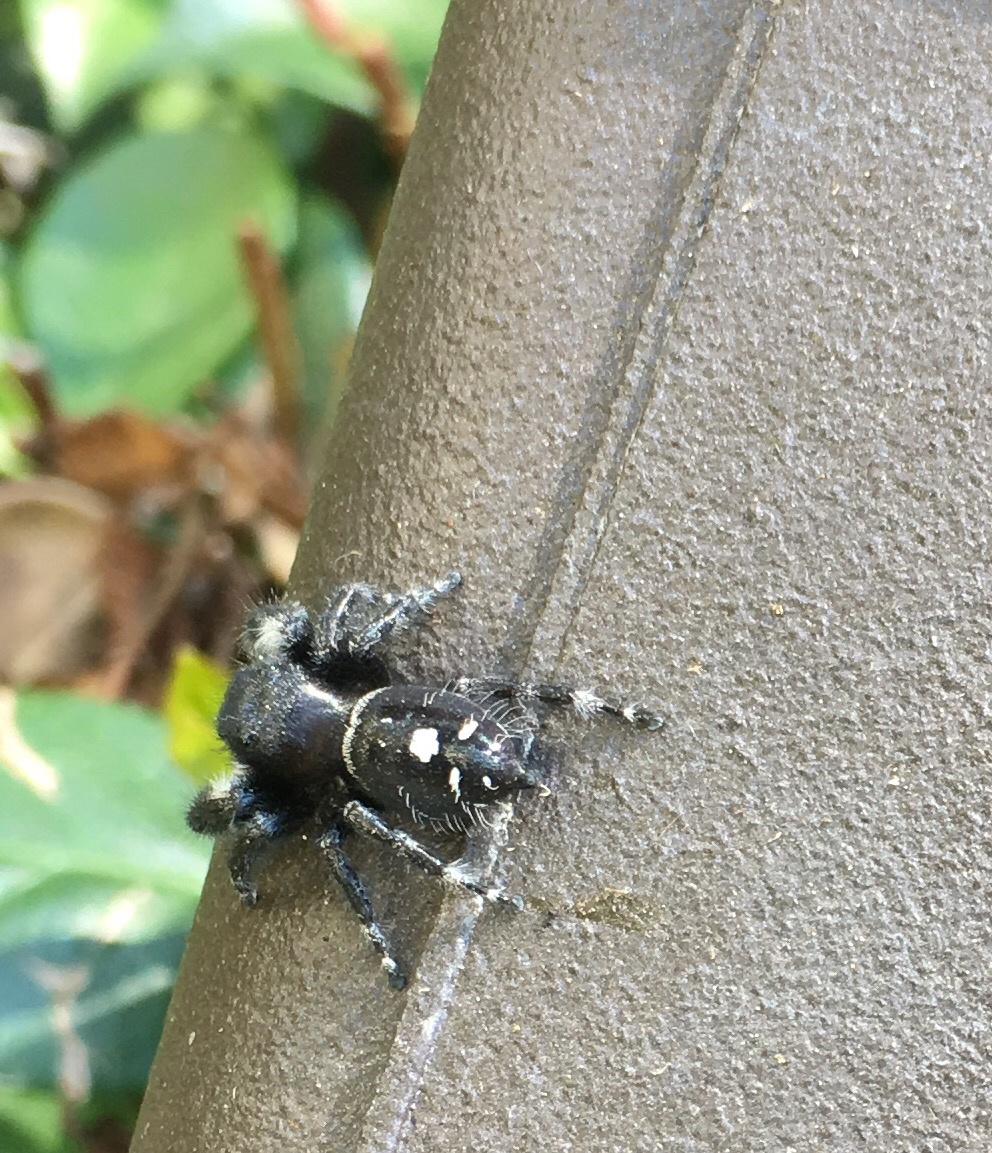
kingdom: Animalia
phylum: Arthropoda
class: Arachnida
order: Araneae
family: Salticidae
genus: Phidippus
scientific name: Phidippus audax
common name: Bold jumper
